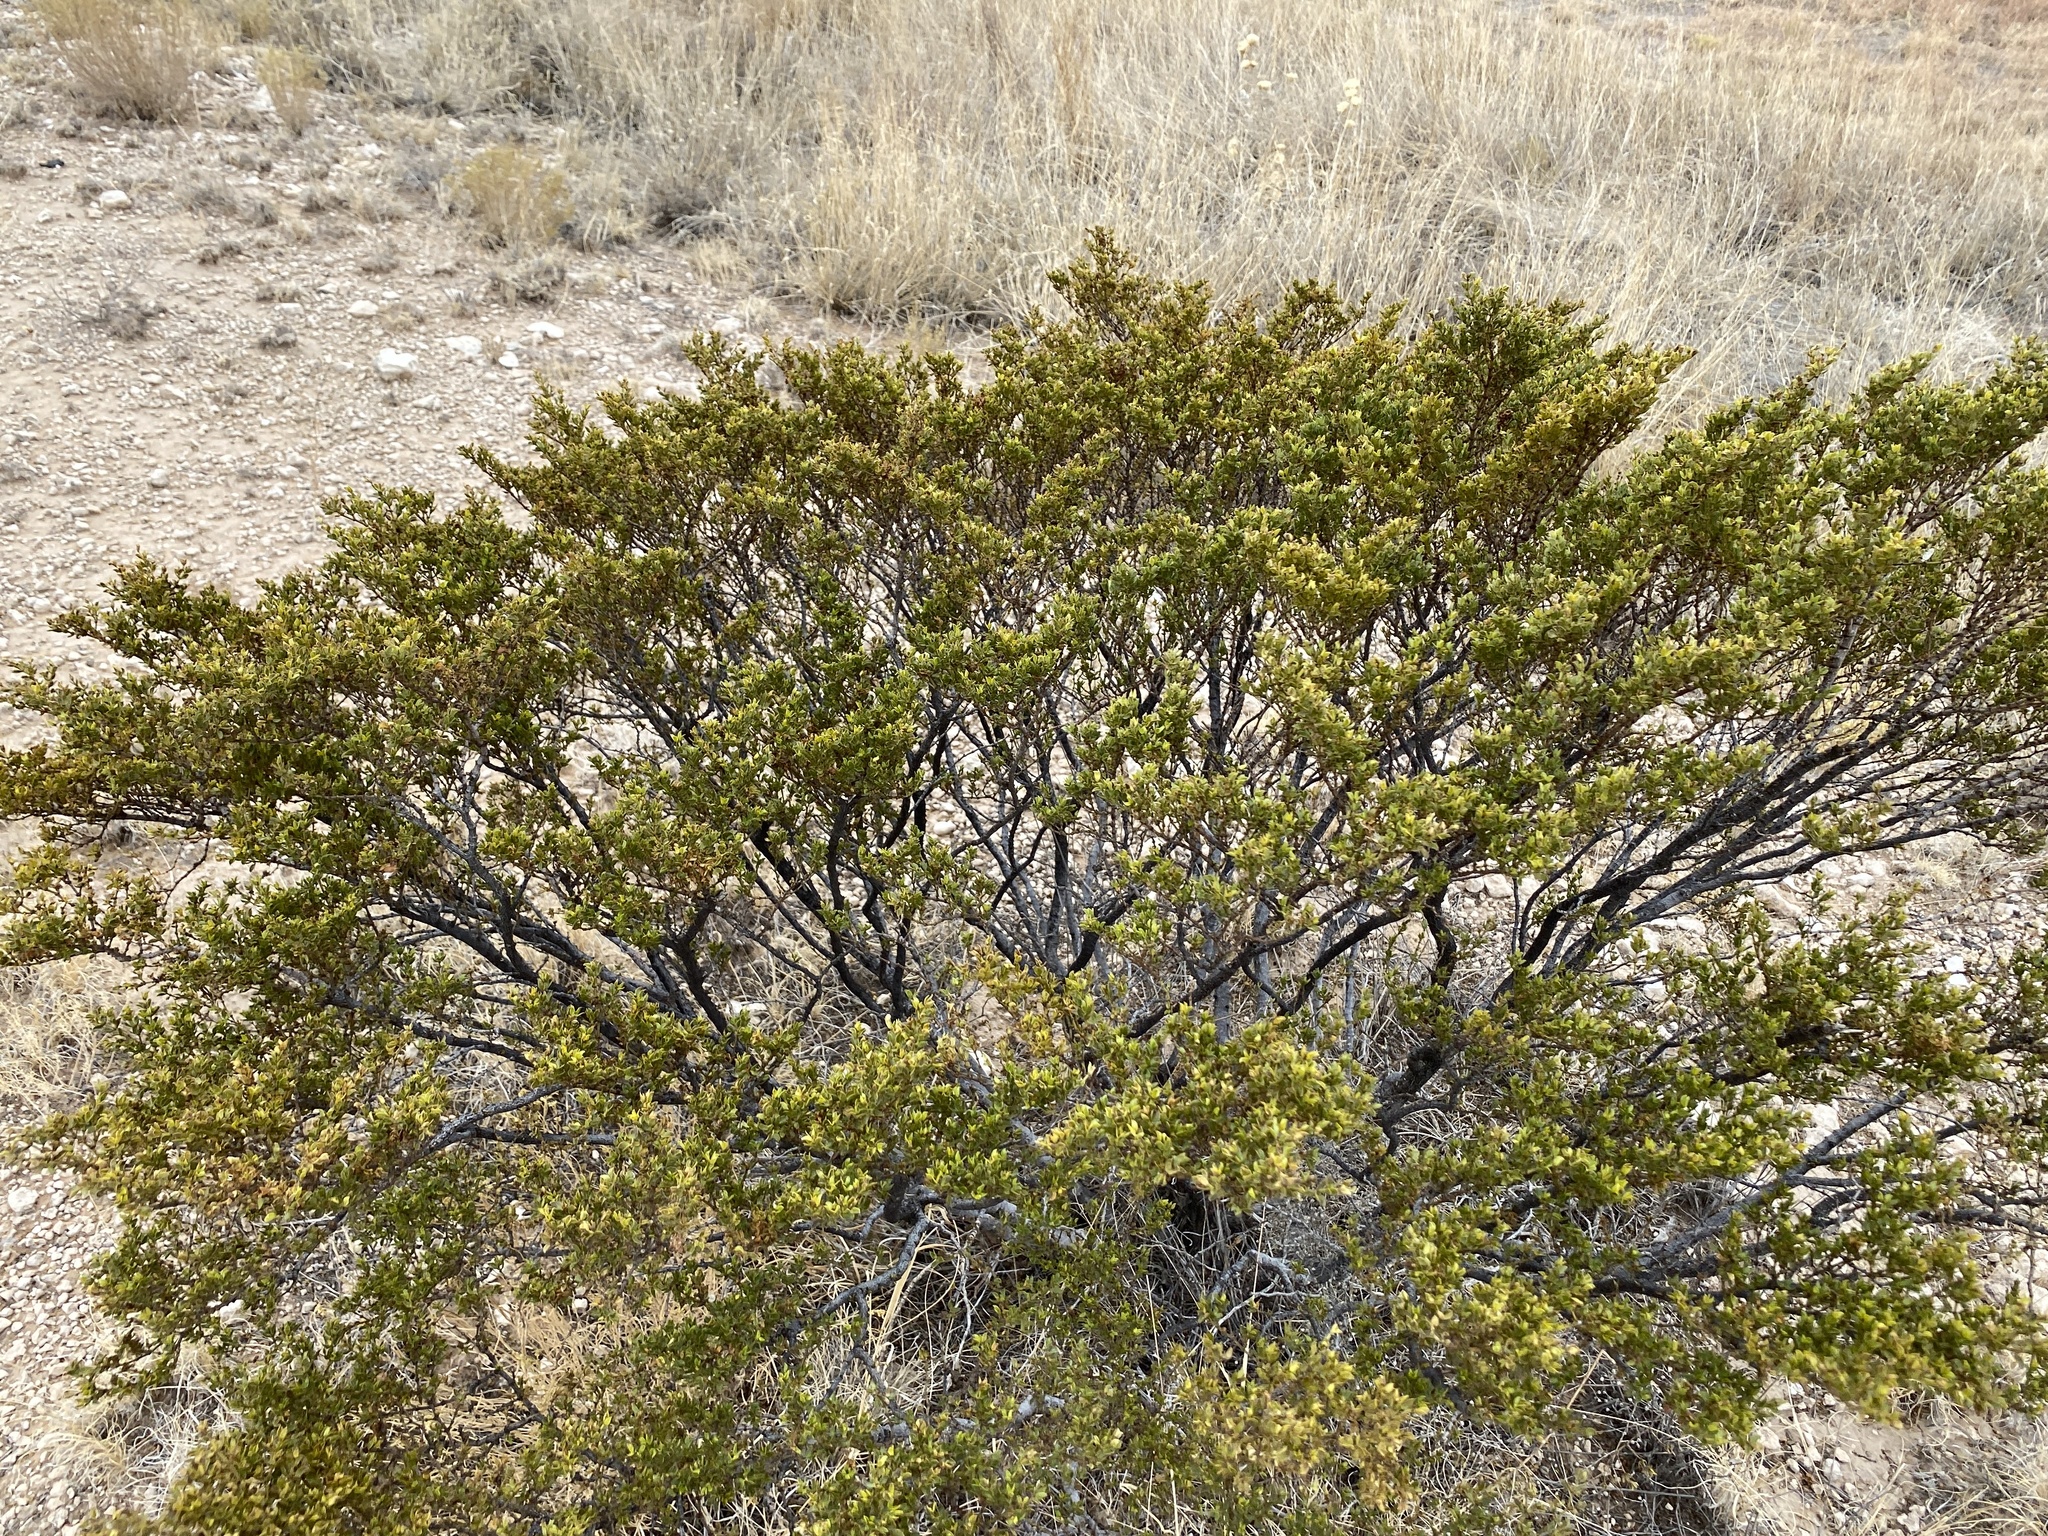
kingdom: Plantae
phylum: Tracheophyta
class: Magnoliopsida
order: Zygophyllales
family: Zygophyllaceae
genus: Larrea
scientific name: Larrea tridentata
